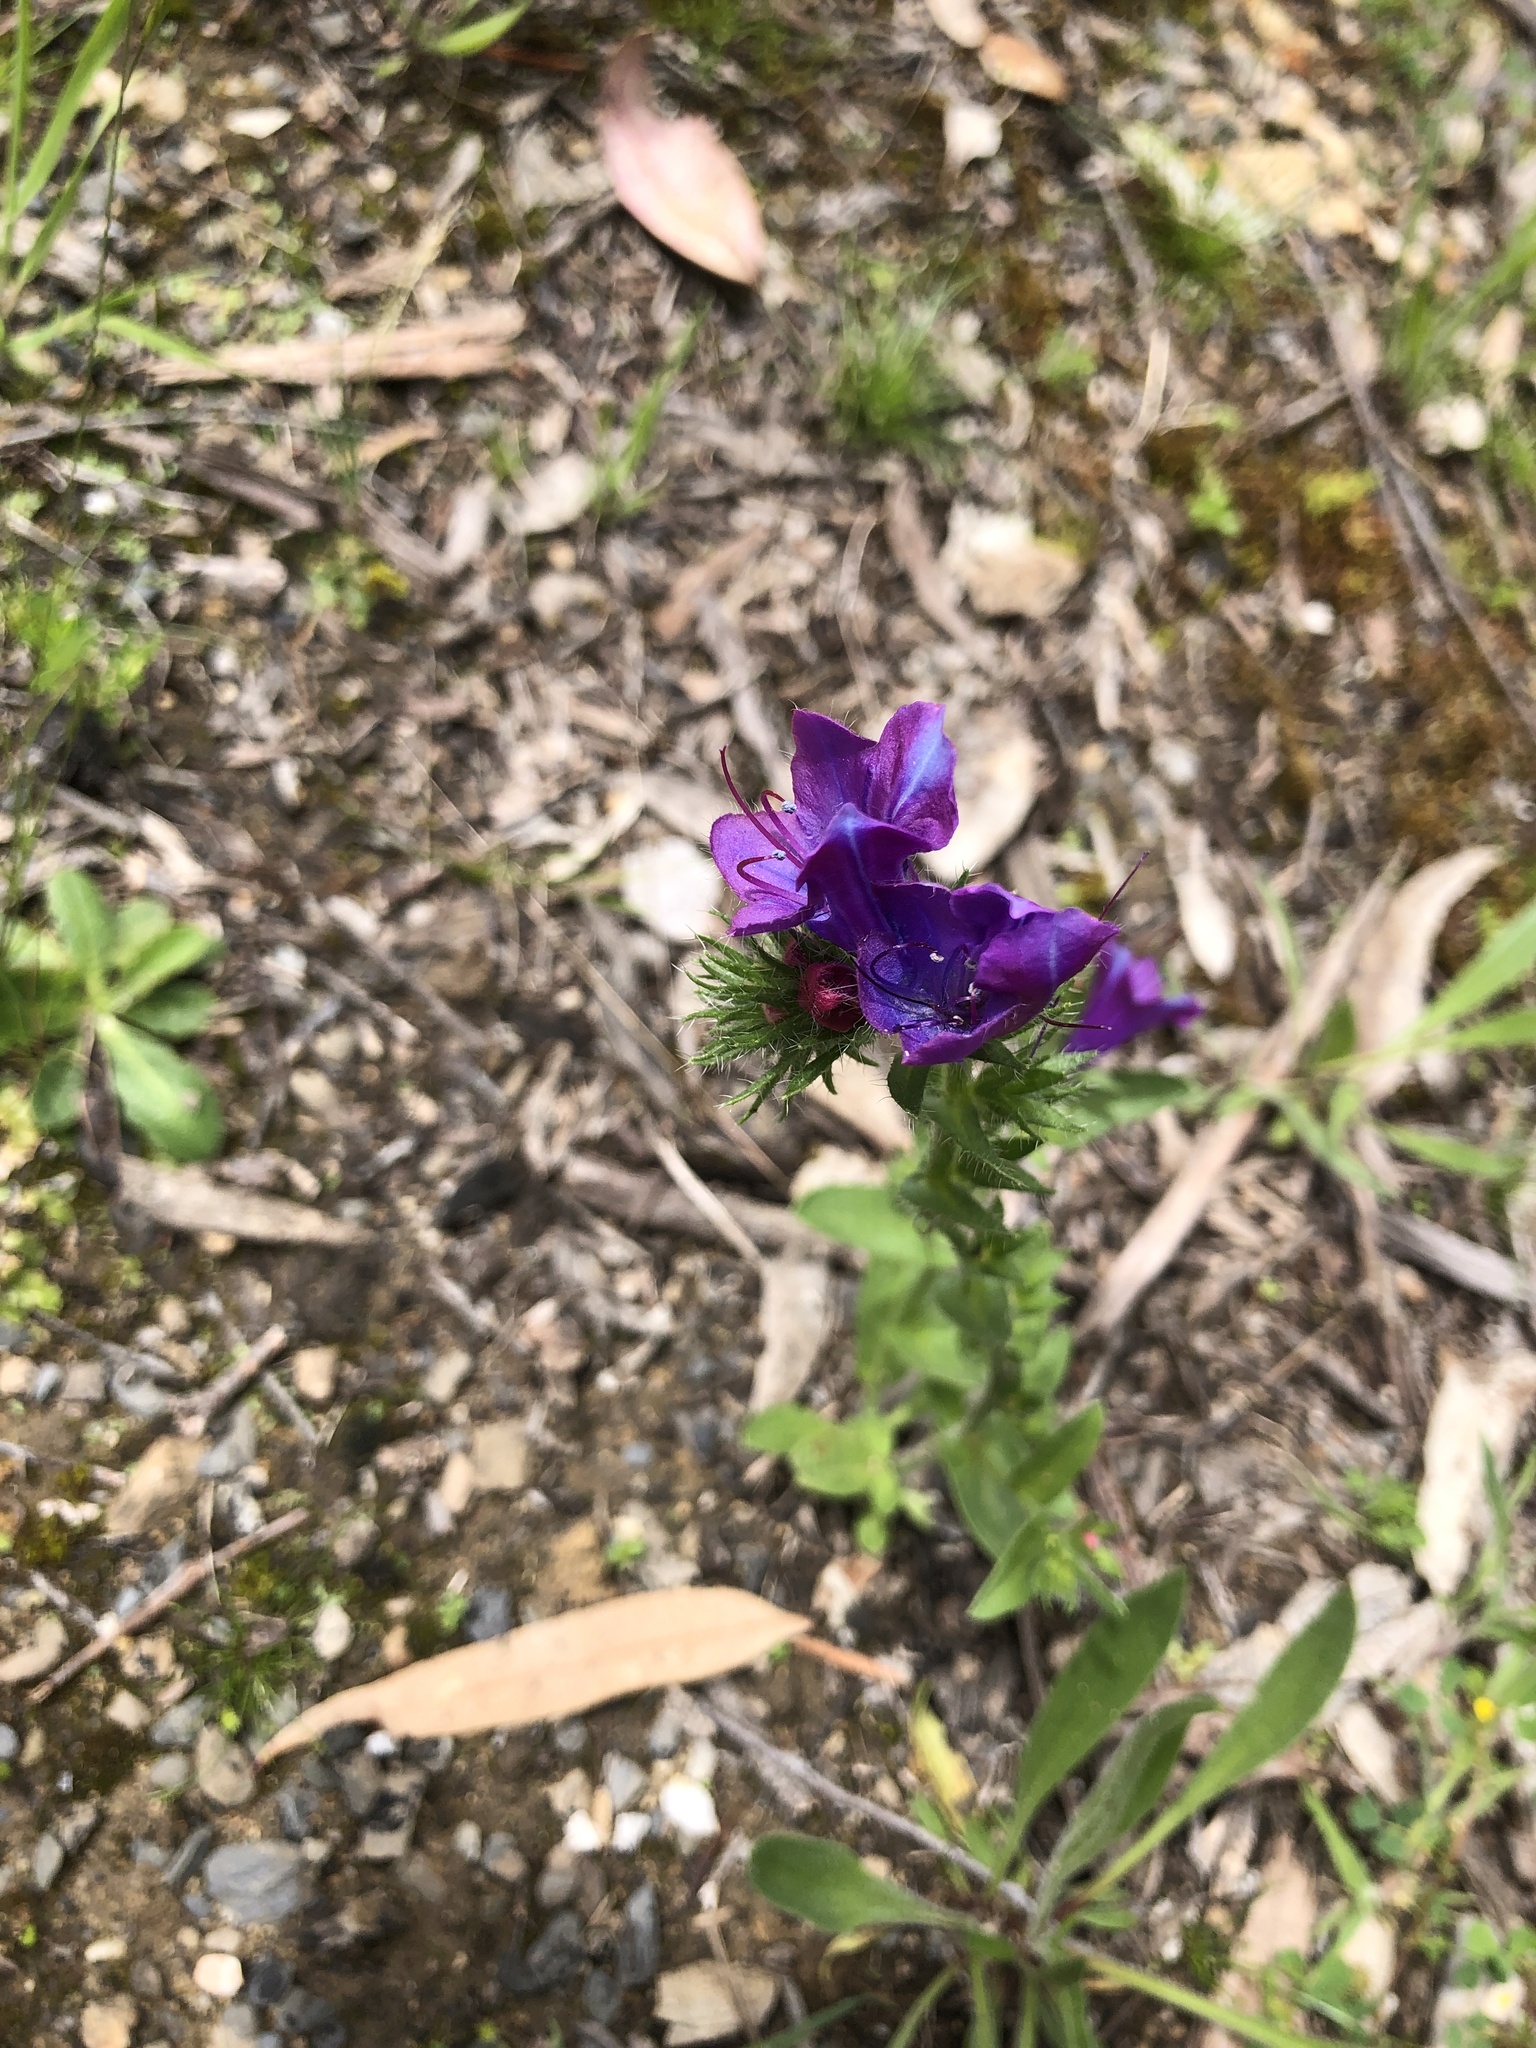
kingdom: Plantae
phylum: Tracheophyta
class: Magnoliopsida
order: Boraginales
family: Boraginaceae
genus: Echium
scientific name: Echium plantagineum
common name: Purple viper's-bugloss
